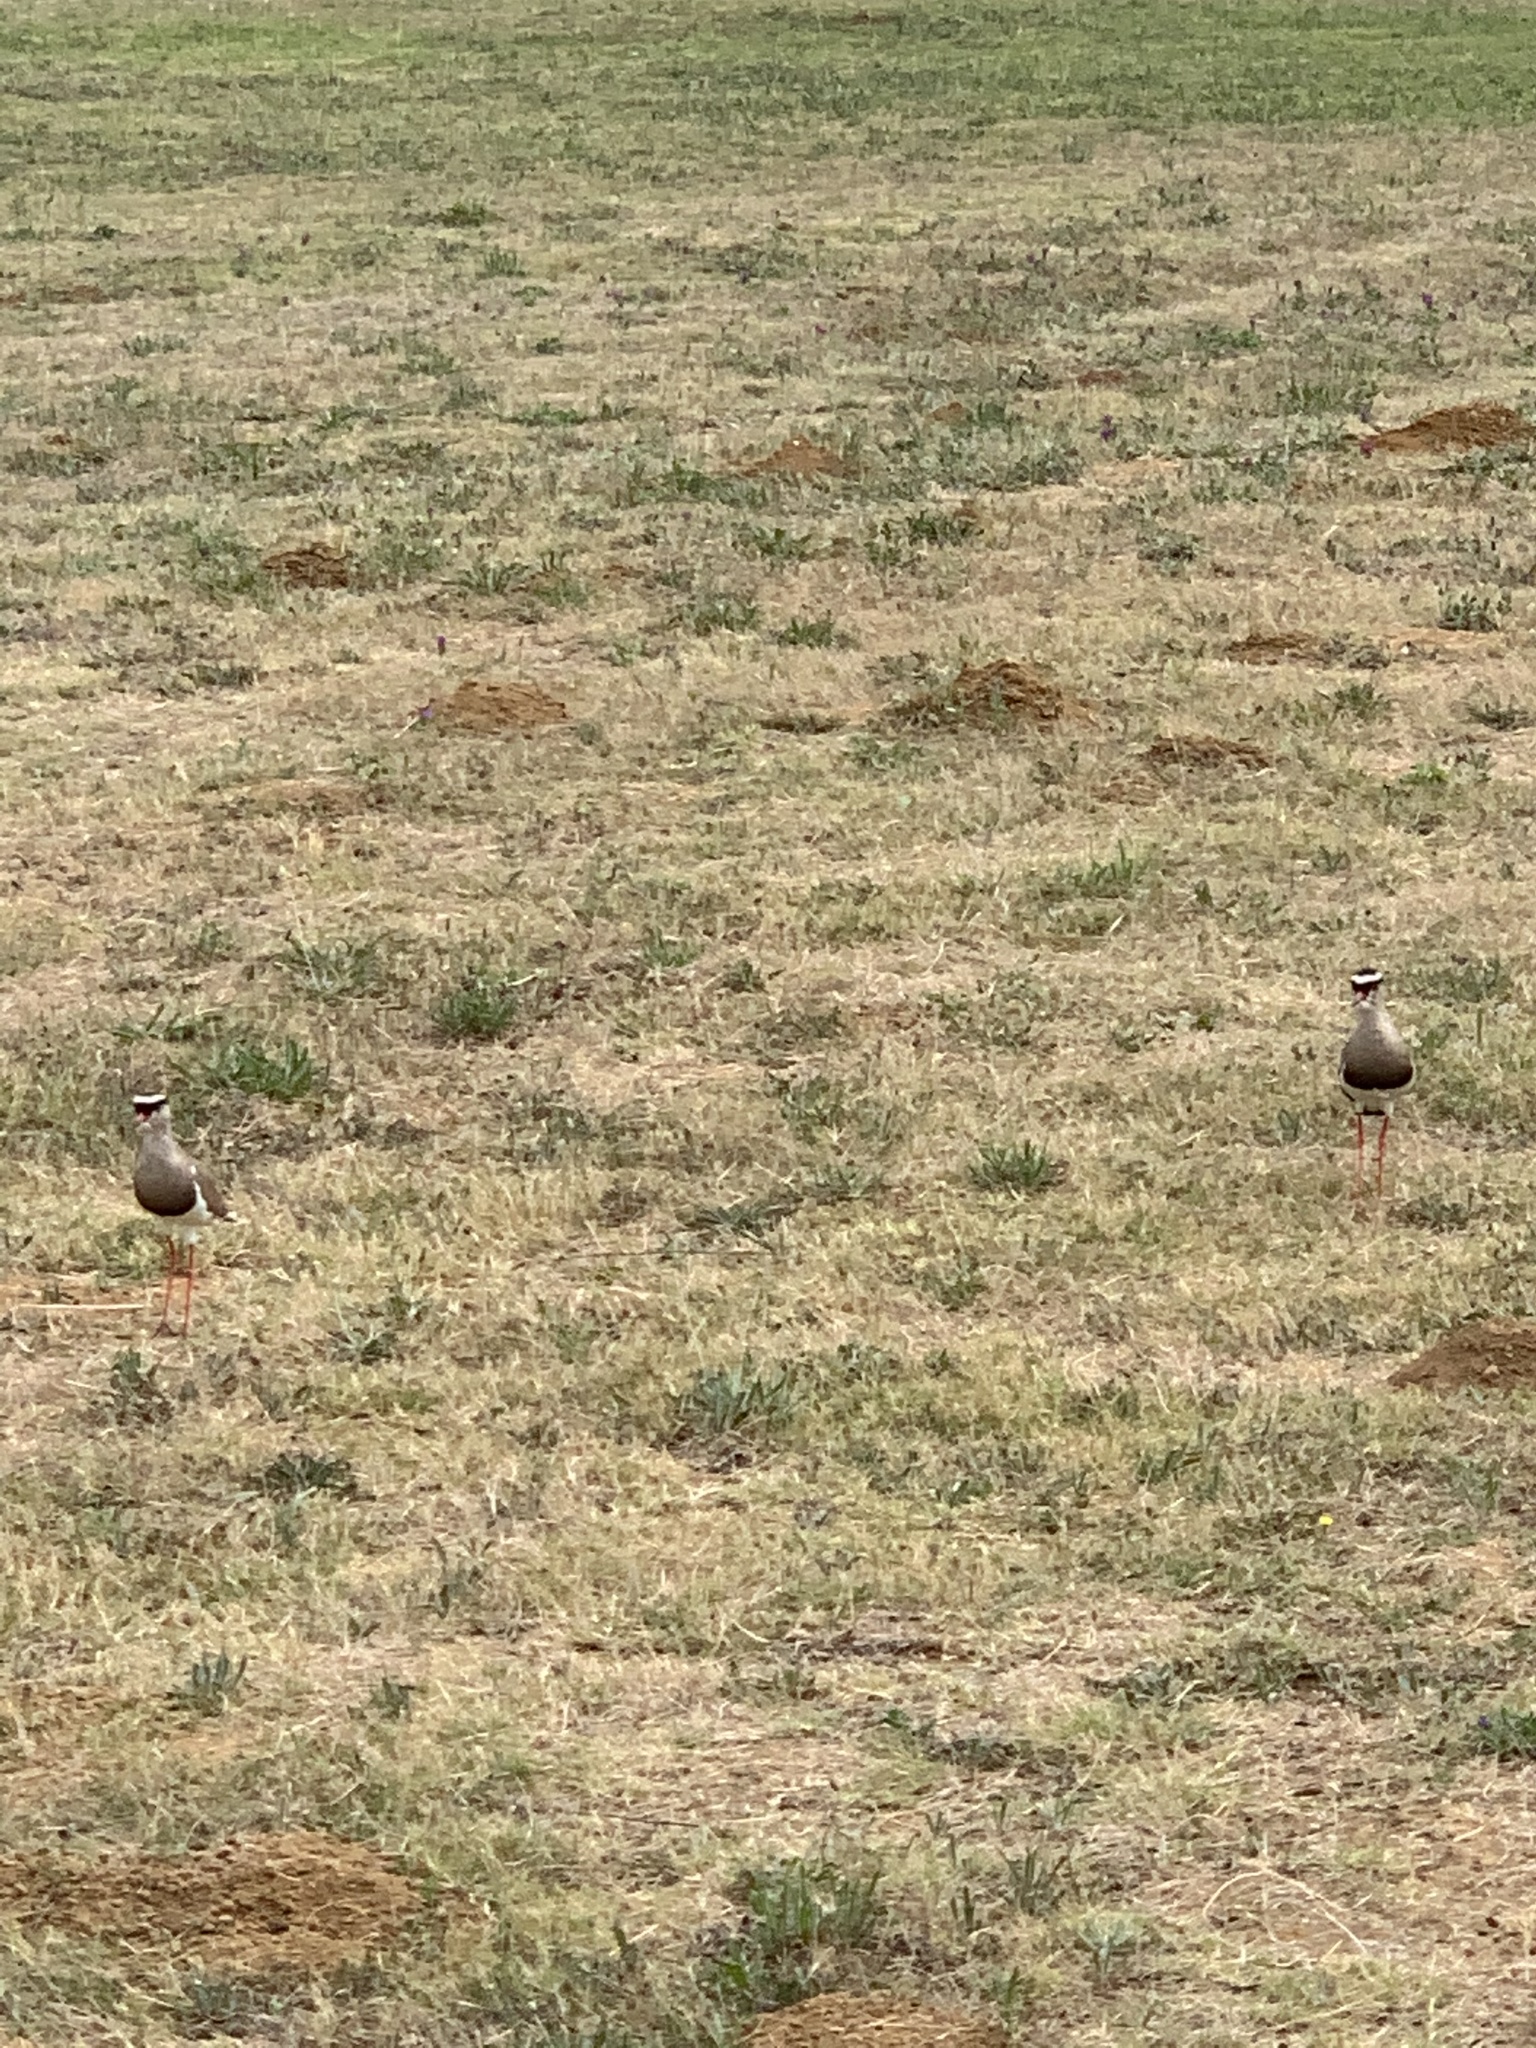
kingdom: Animalia
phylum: Chordata
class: Aves
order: Charadriiformes
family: Charadriidae
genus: Vanellus
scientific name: Vanellus coronatus
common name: Crowned lapwing
